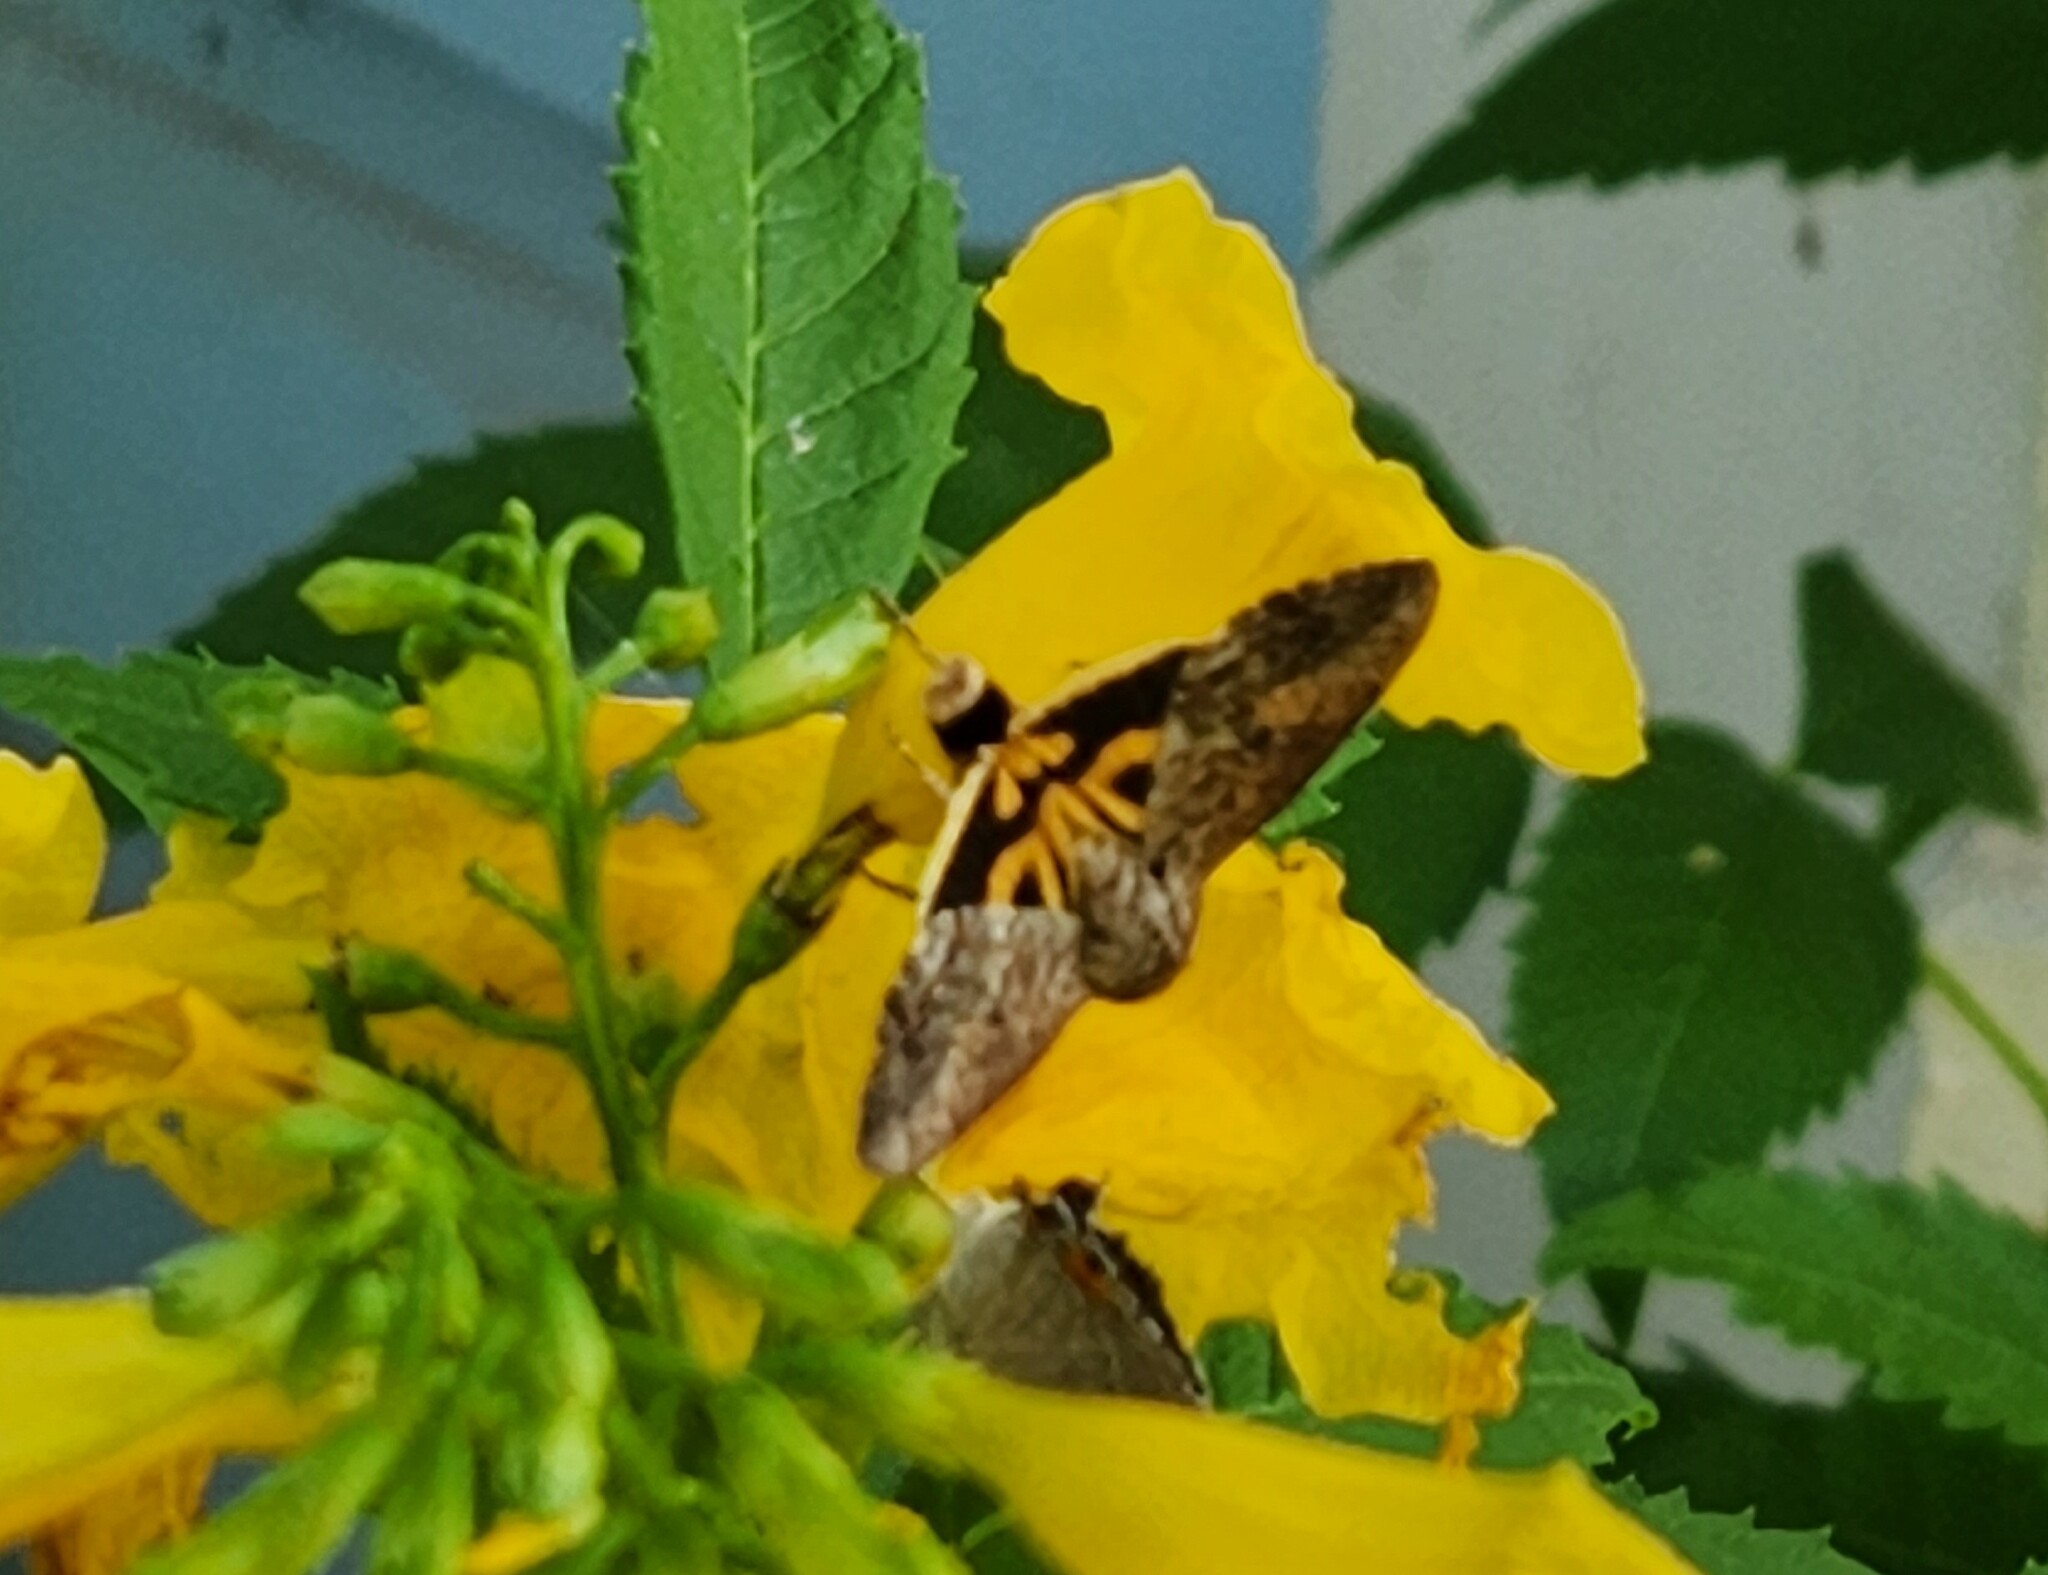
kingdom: Animalia
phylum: Arthropoda
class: Insecta
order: Lepidoptera
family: Erebidae
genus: Hypocala
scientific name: Hypocala andremona
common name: Hypocala moth
